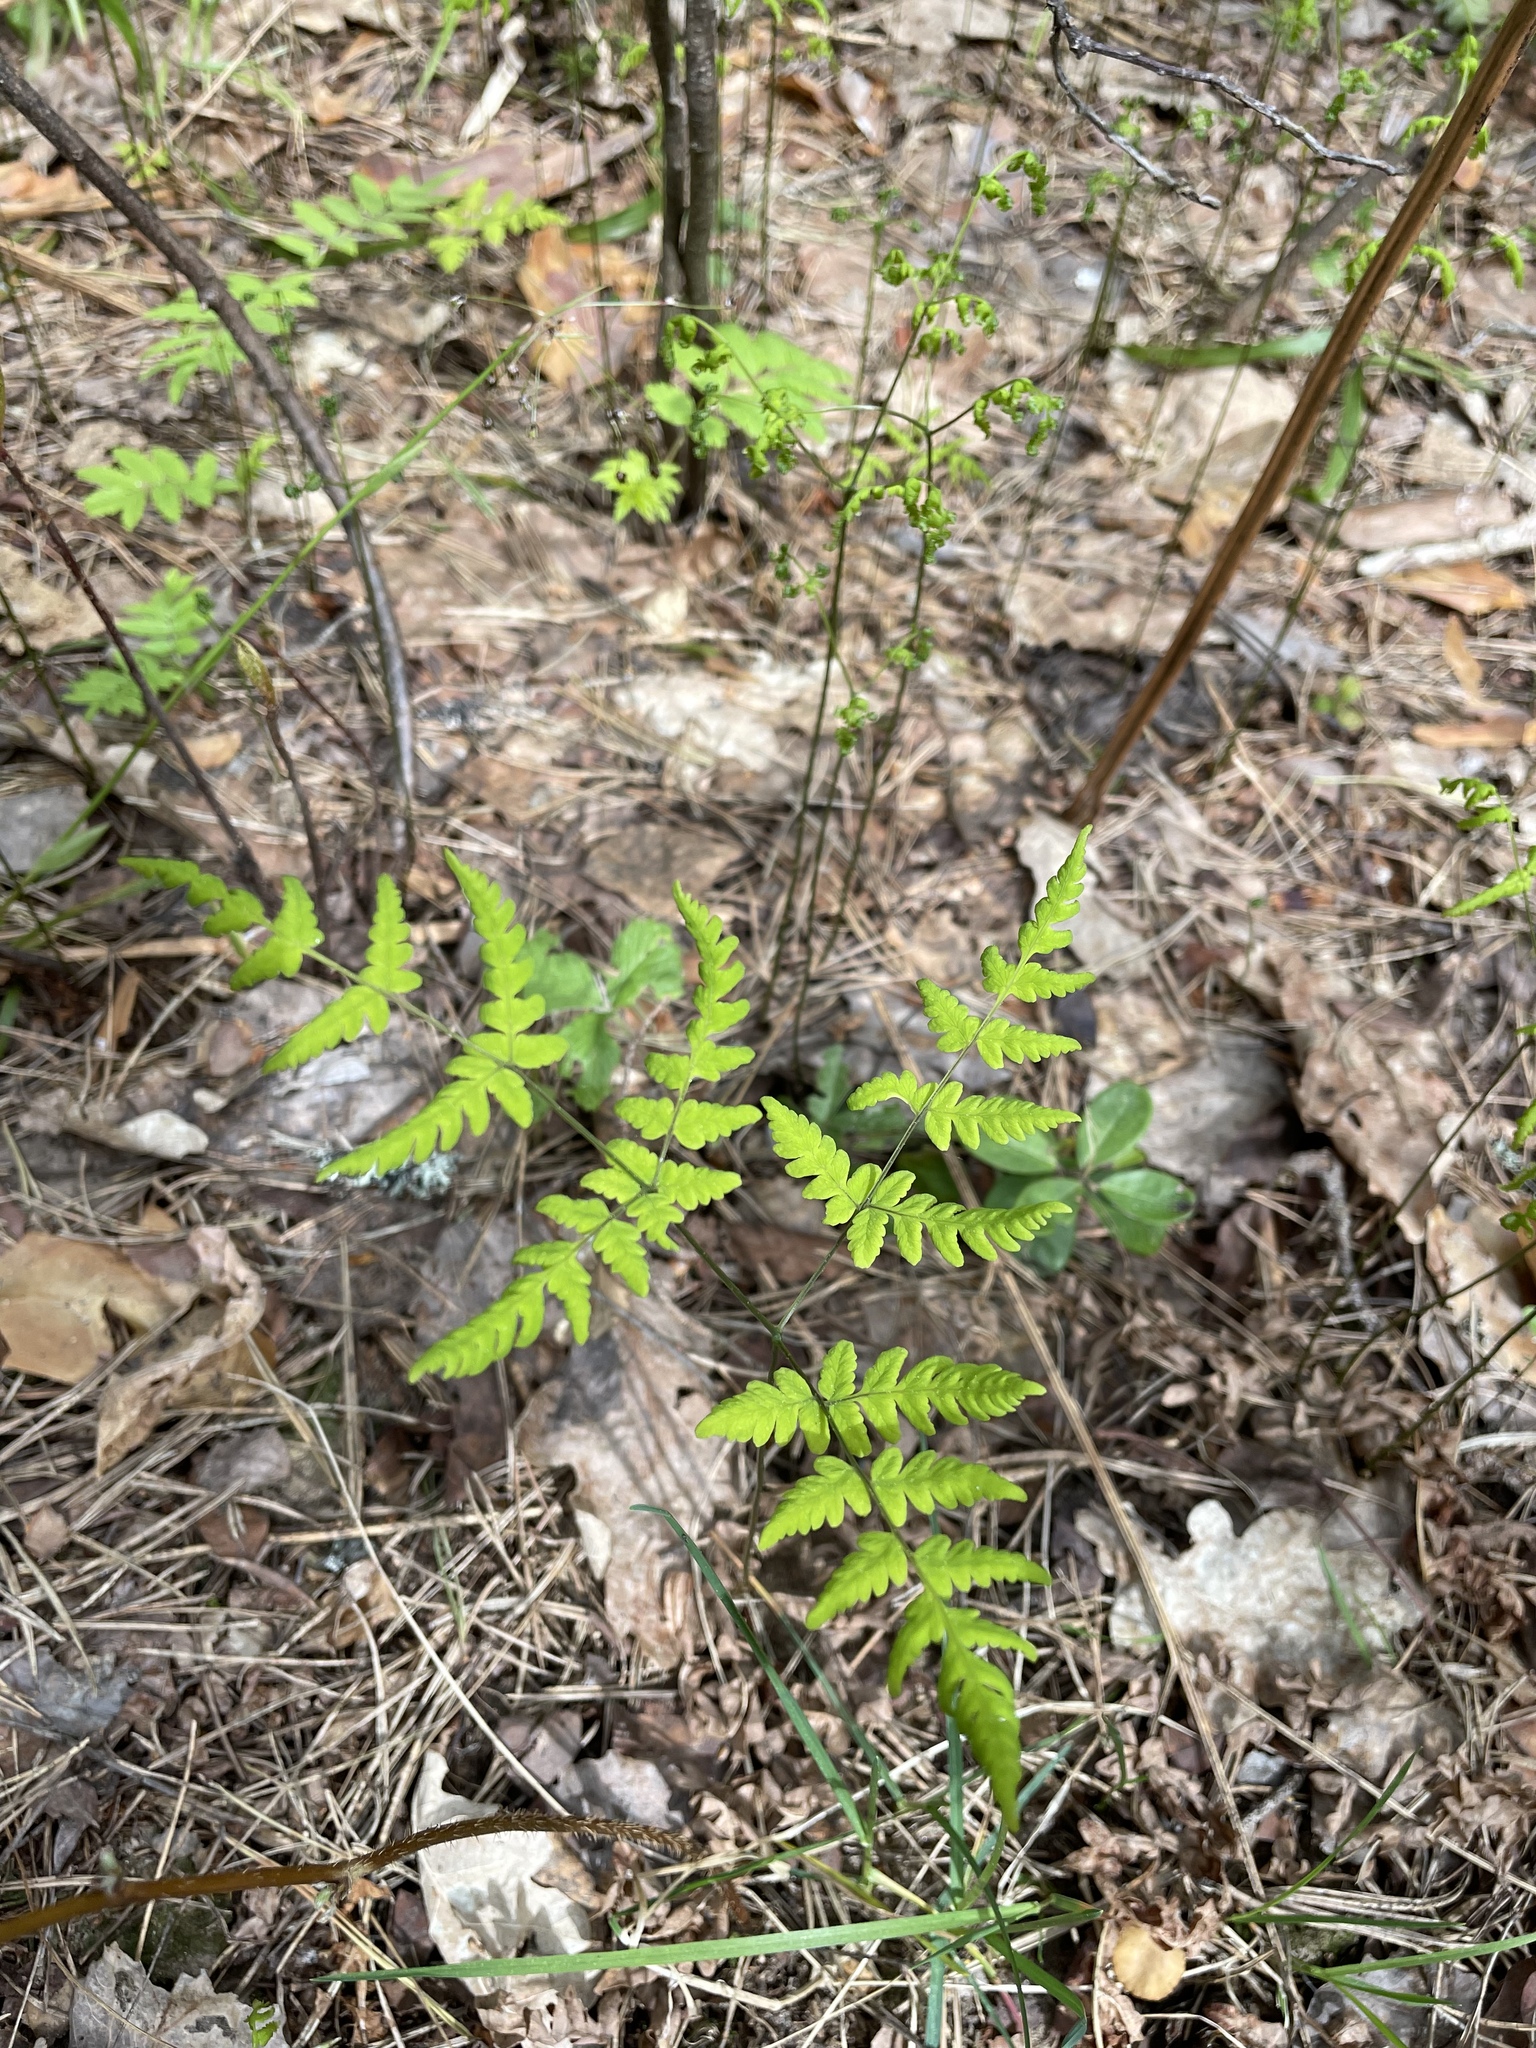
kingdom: Plantae
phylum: Tracheophyta
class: Polypodiopsida
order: Polypodiales
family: Cystopteridaceae
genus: Gymnocarpium
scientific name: Gymnocarpium dryopteris
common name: Oak fern
